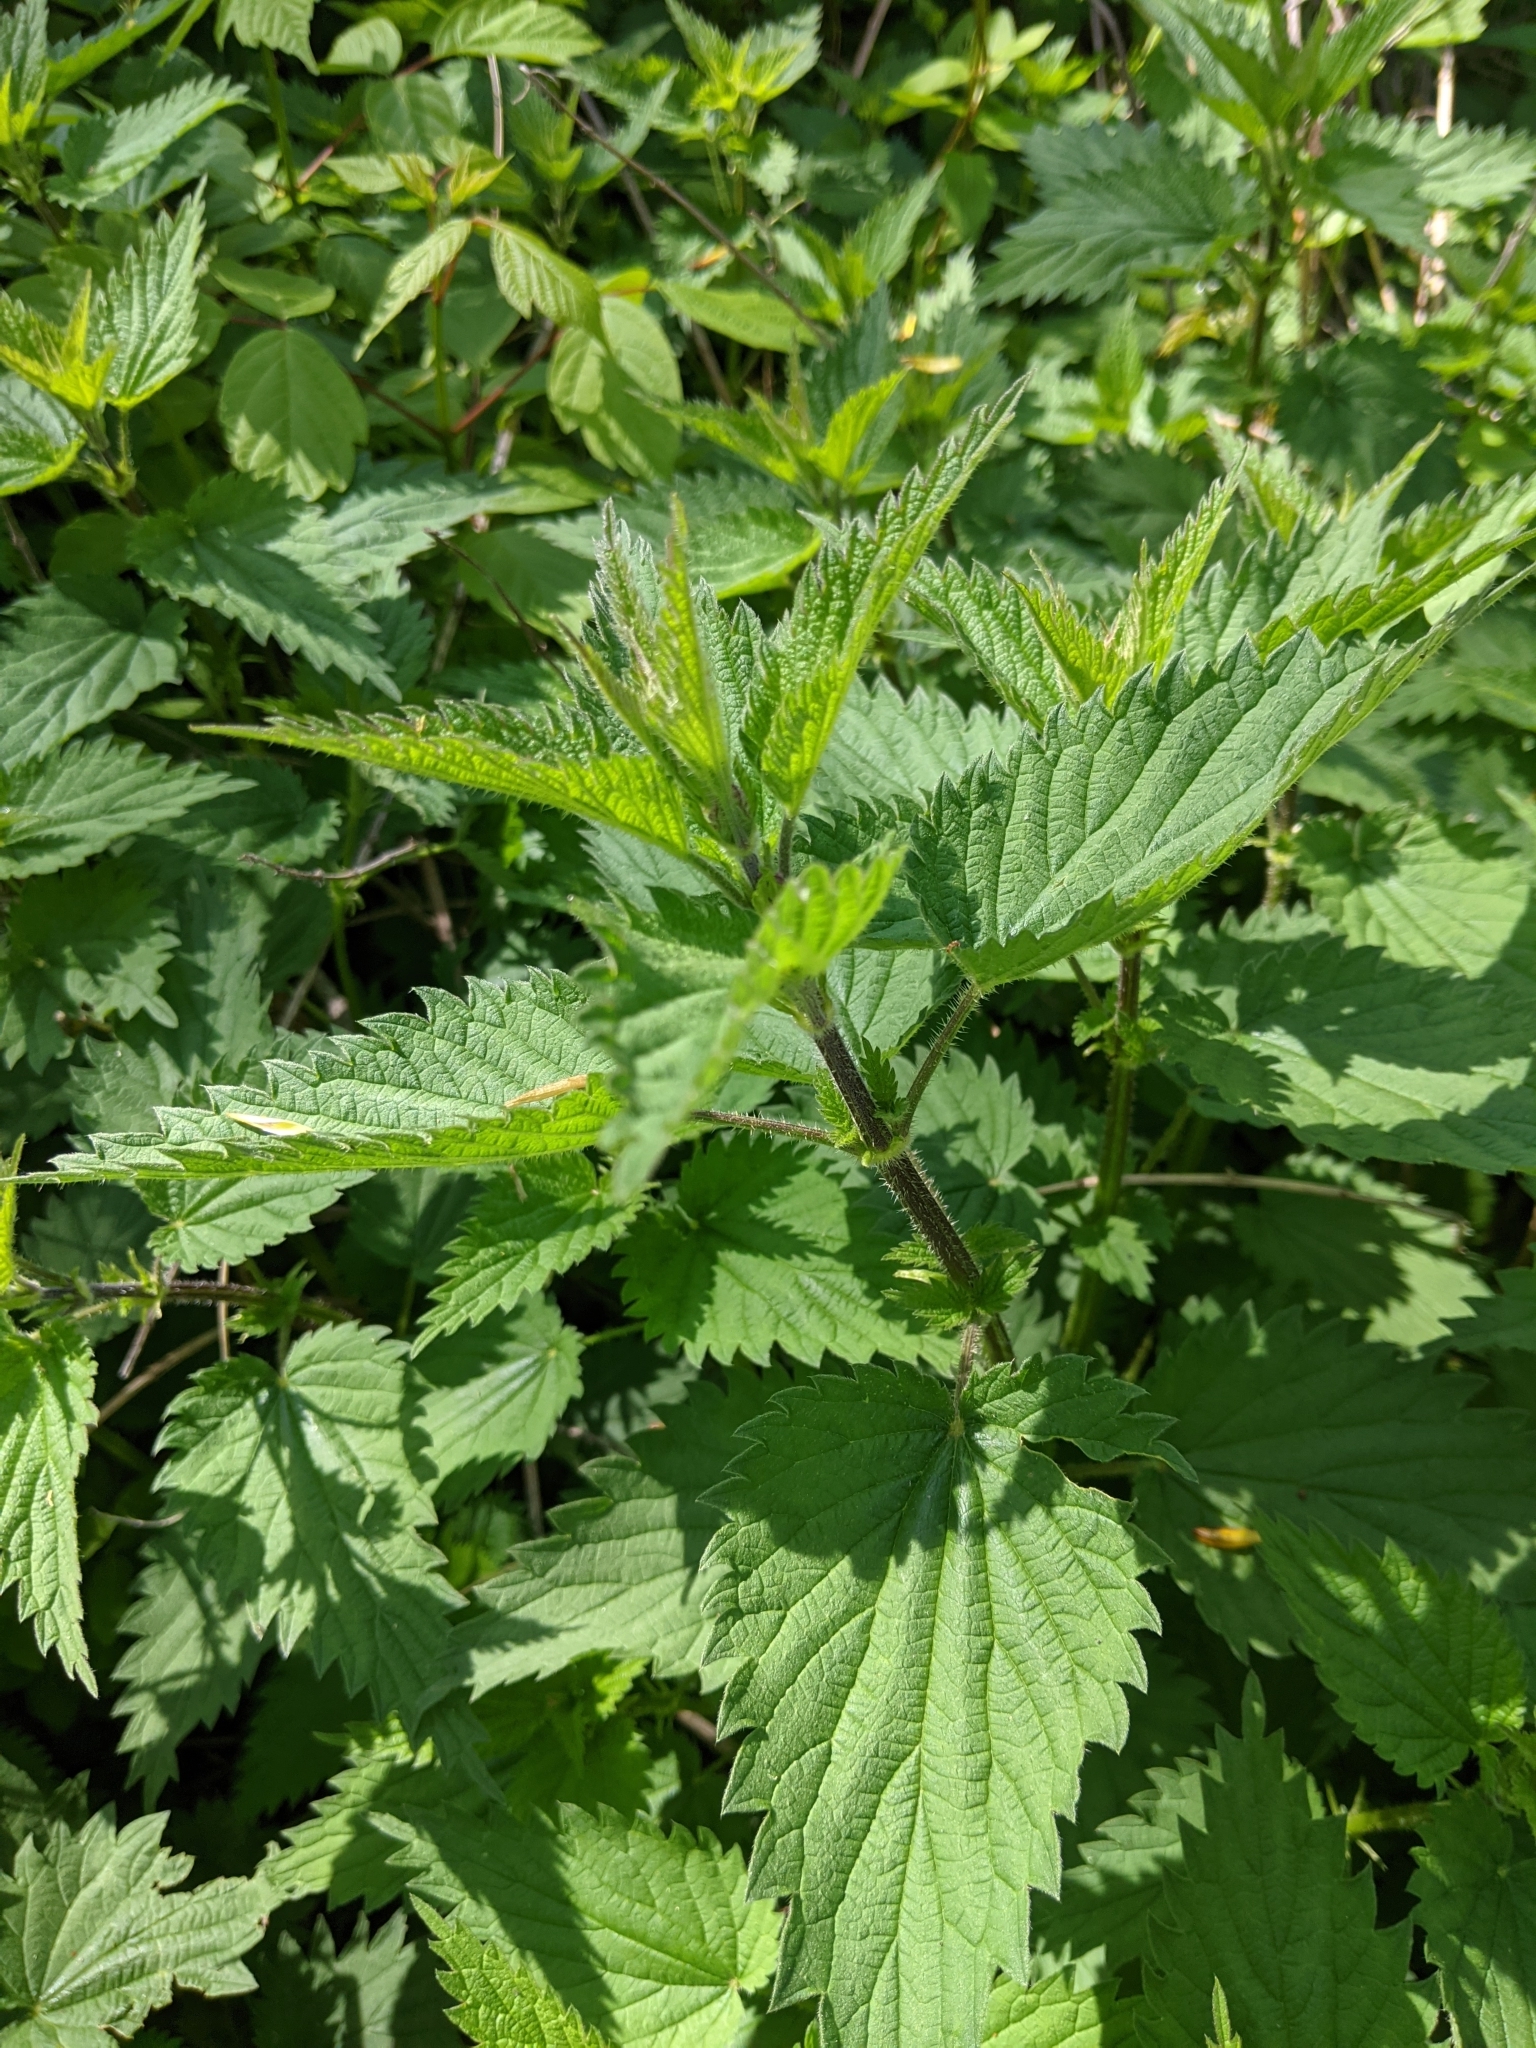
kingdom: Plantae
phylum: Tracheophyta
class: Magnoliopsida
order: Rosales
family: Urticaceae
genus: Urtica
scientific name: Urtica dioica
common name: Common nettle
